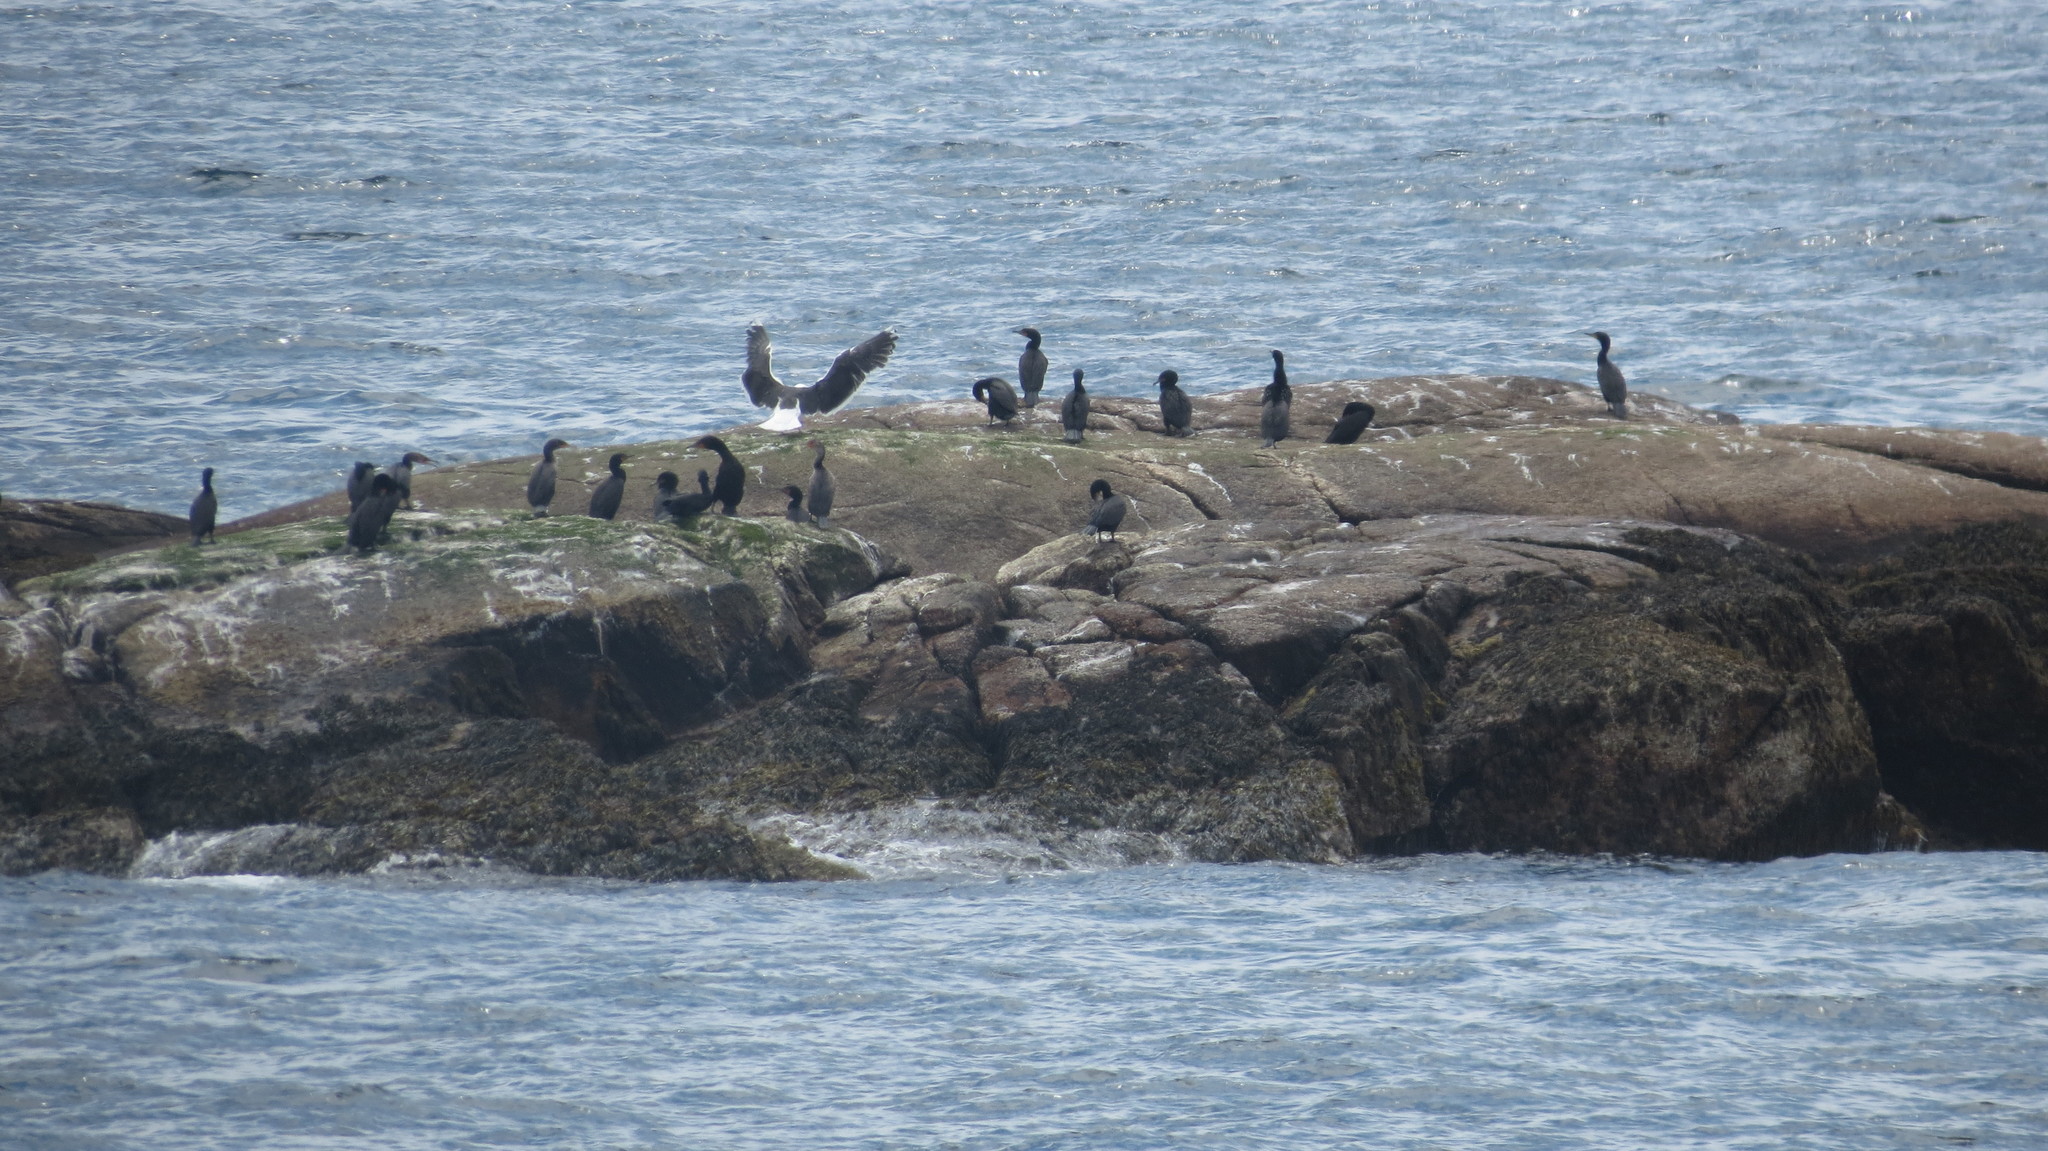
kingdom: Animalia
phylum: Chordata
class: Aves
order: Charadriiformes
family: Laridae
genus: Larus
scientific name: Larus marinus
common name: Great black-backed gull
